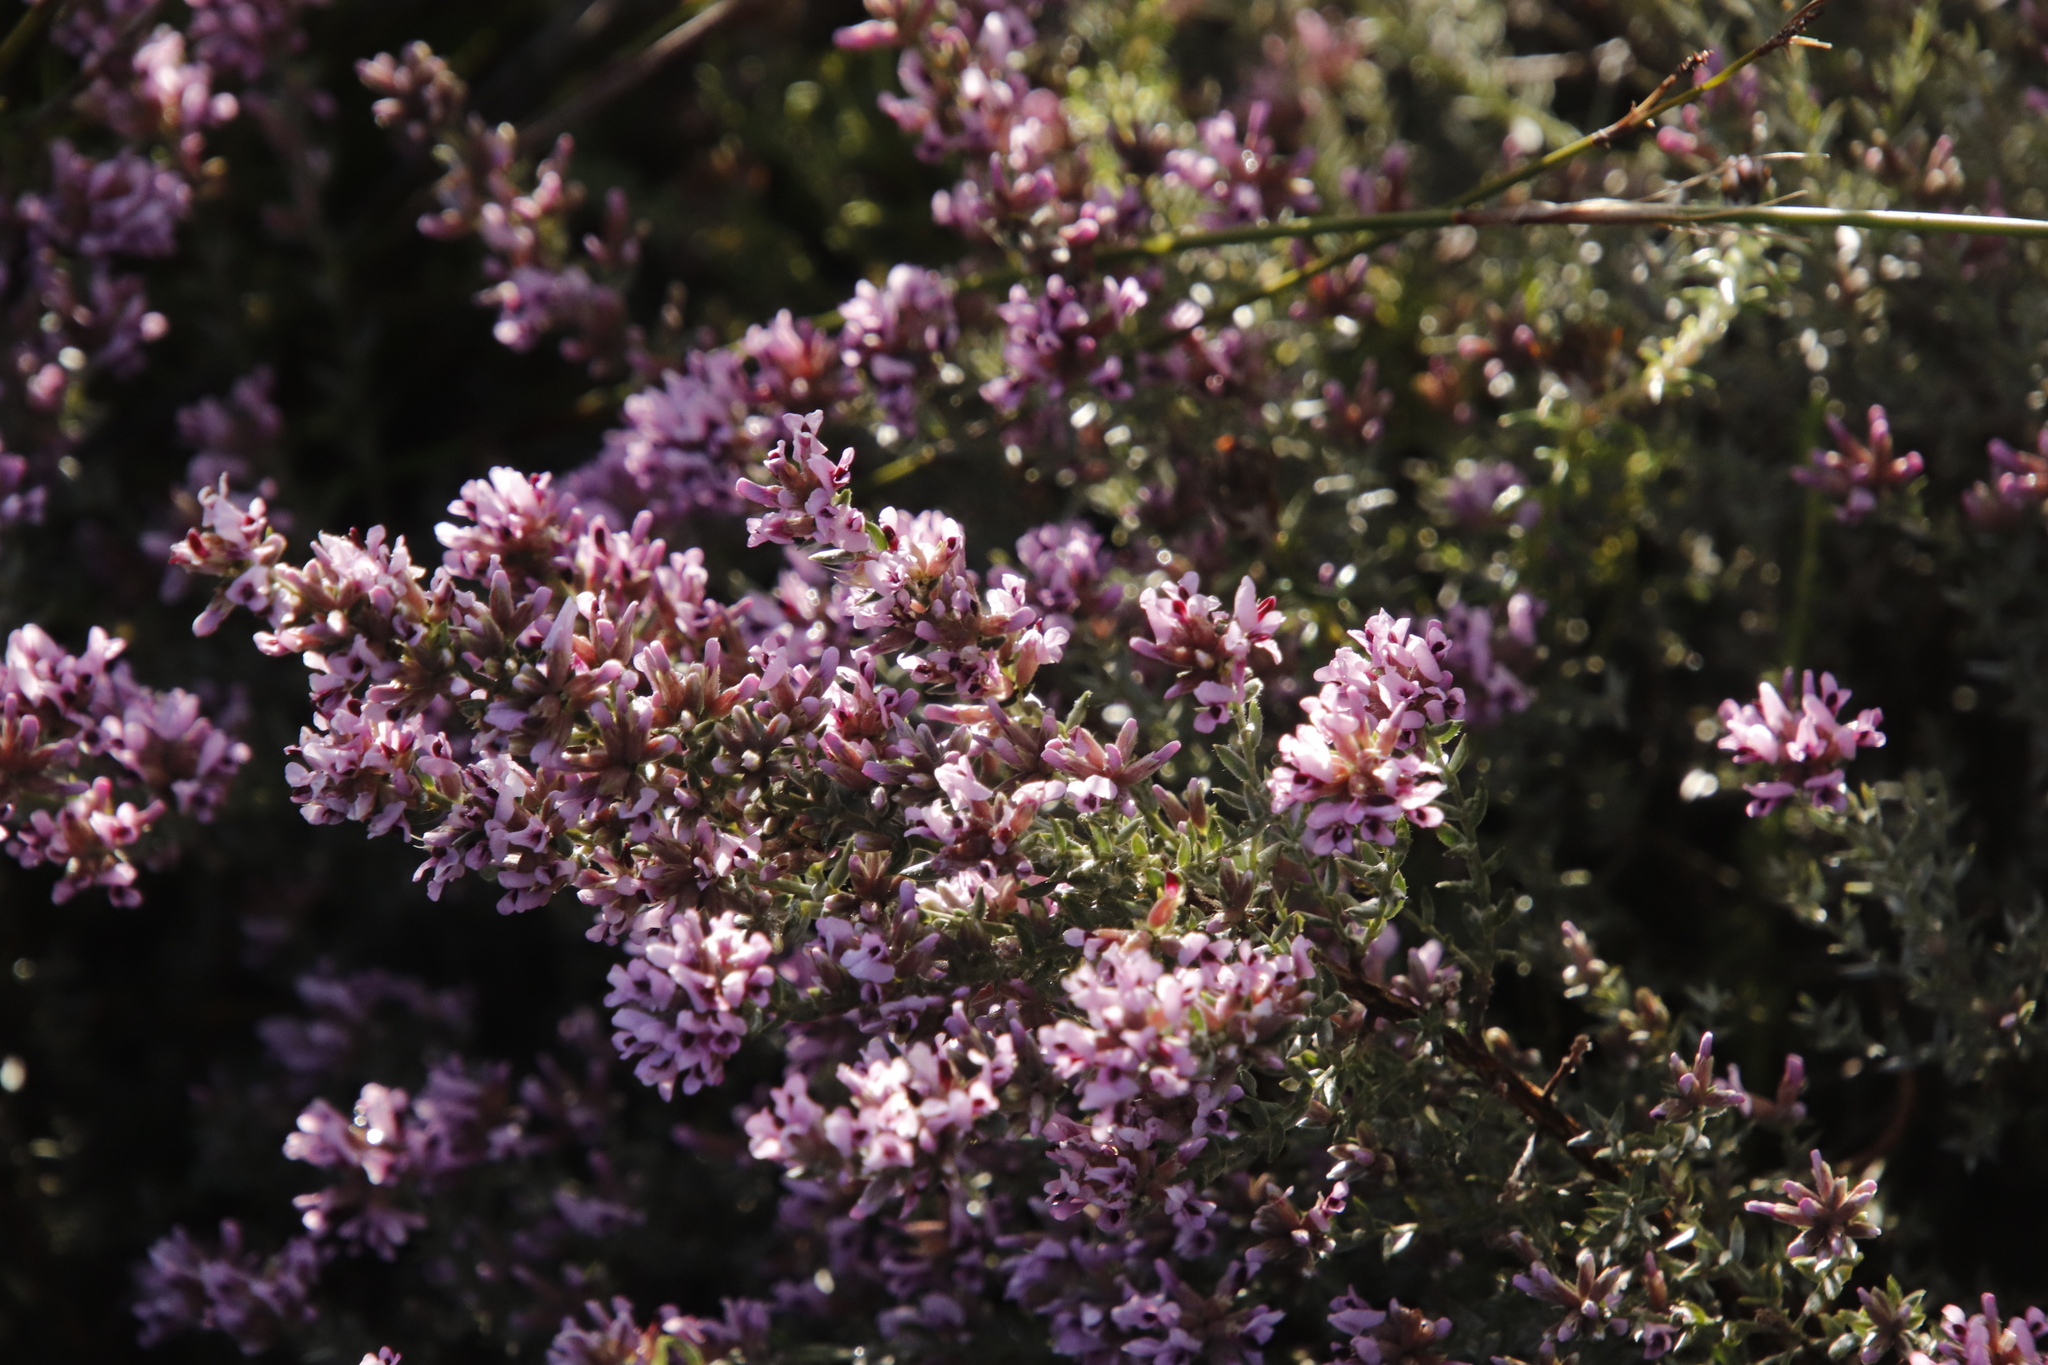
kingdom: Plantae
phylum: Tracheophyta
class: Magnoliopsida
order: Fabales
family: Fabaceae
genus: Amphithalea
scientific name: Amphithalea ericifolia
